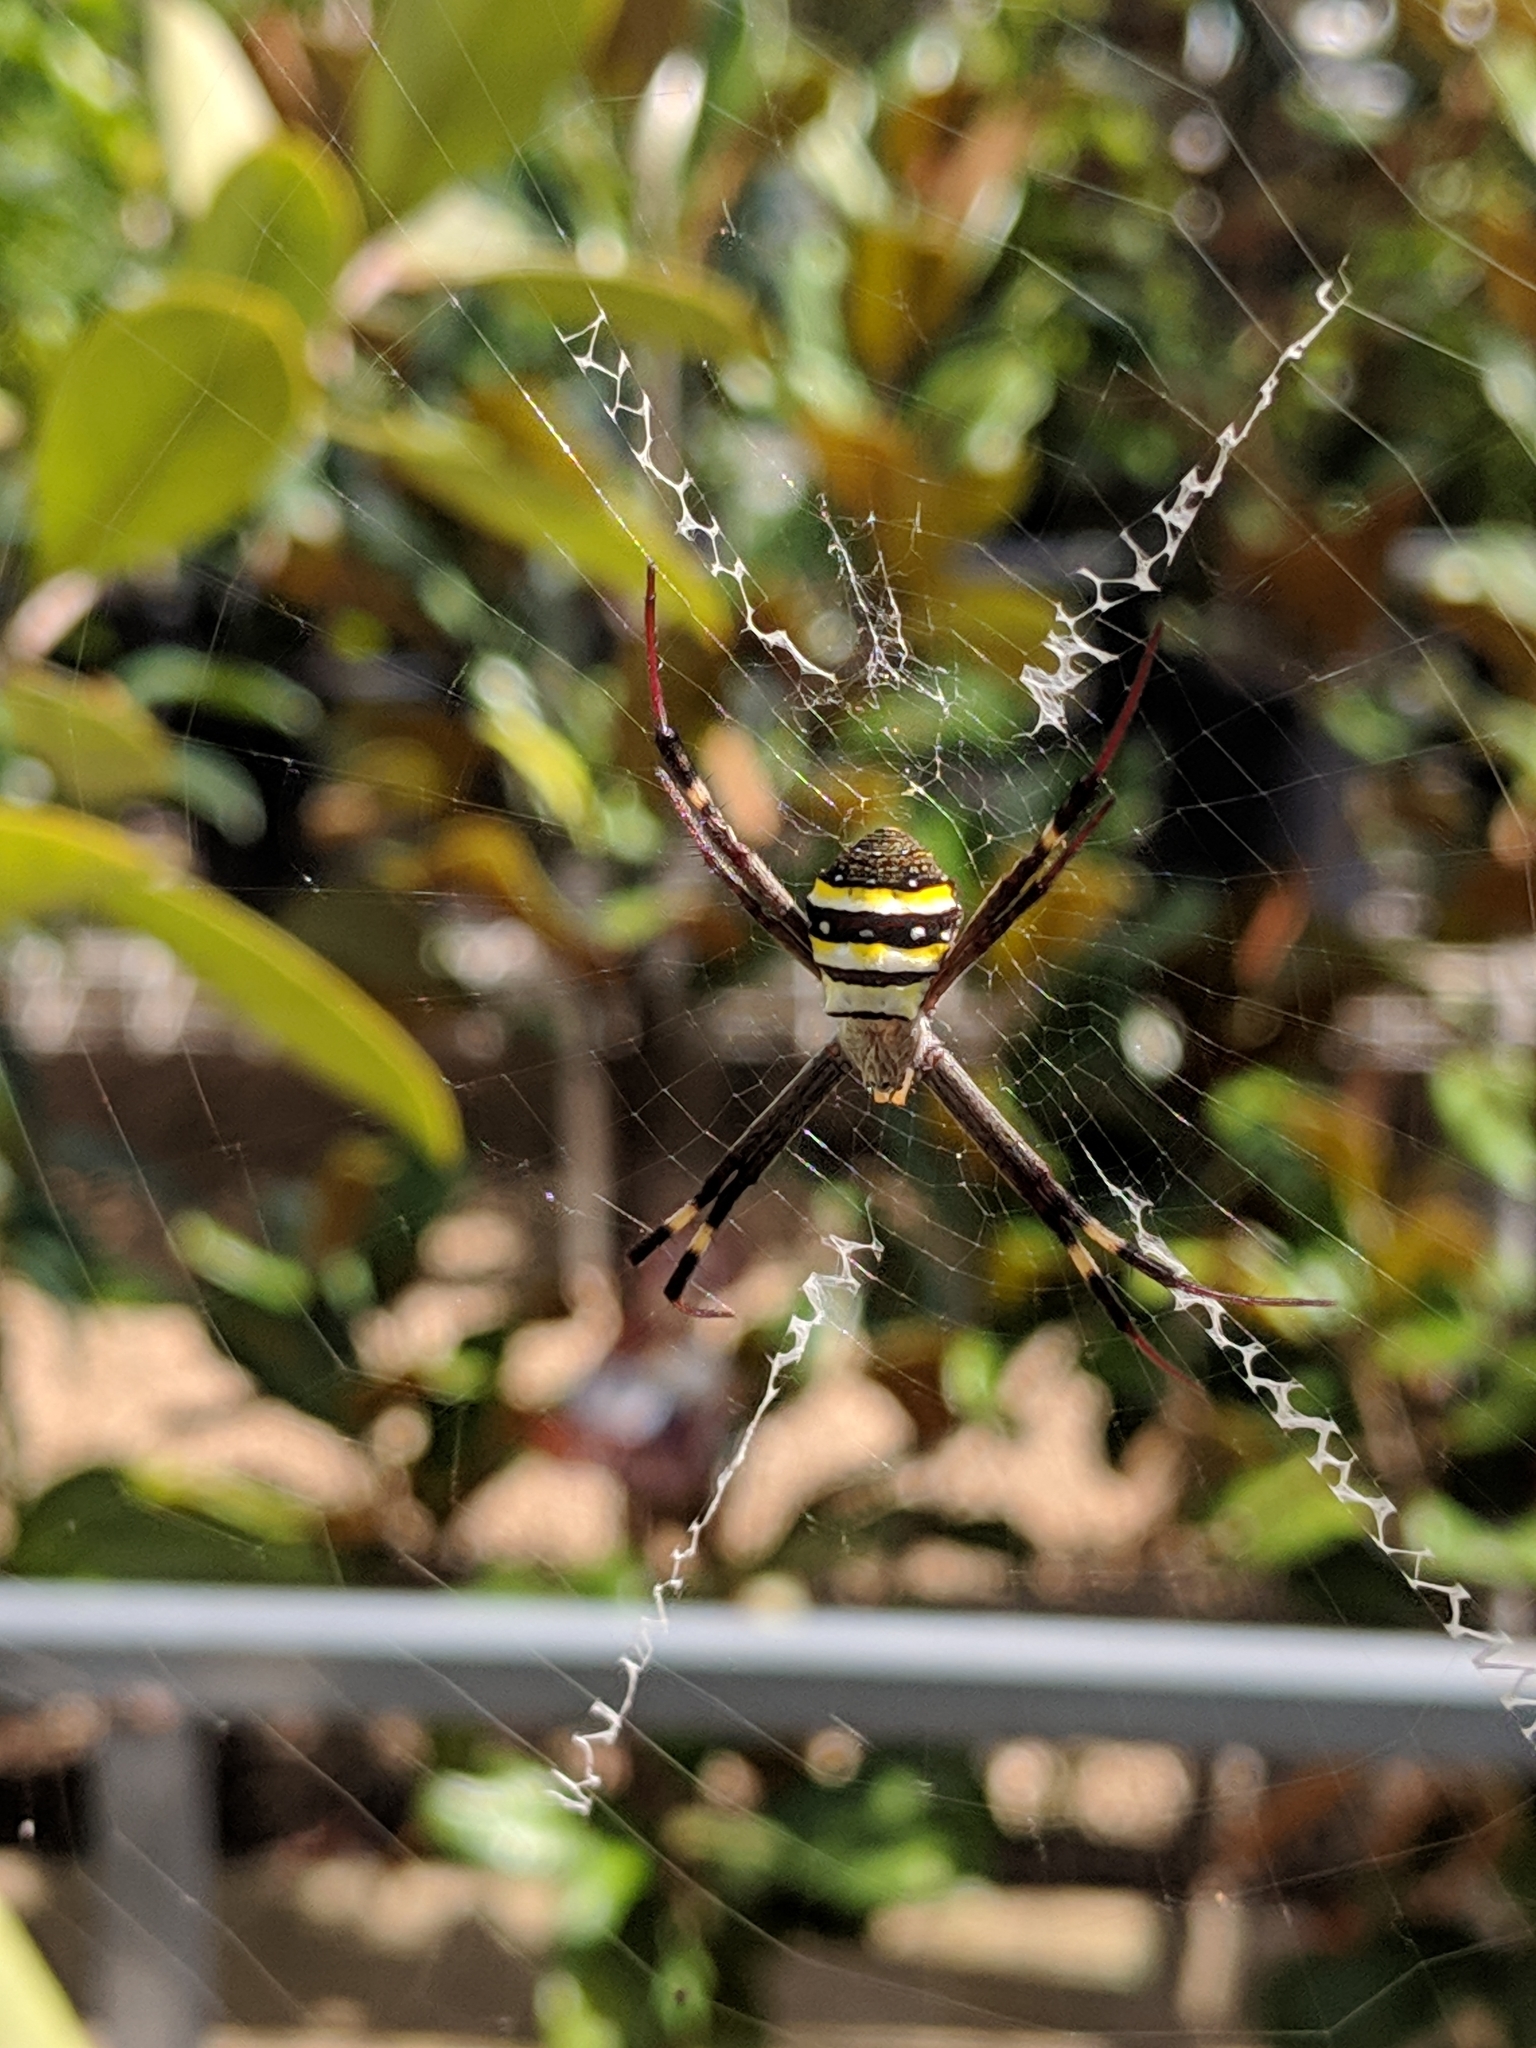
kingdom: Animalia
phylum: Arthropoda
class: Arachnida
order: Araneae
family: Araneidae
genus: Argiope
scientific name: Argiope keyserlingi
